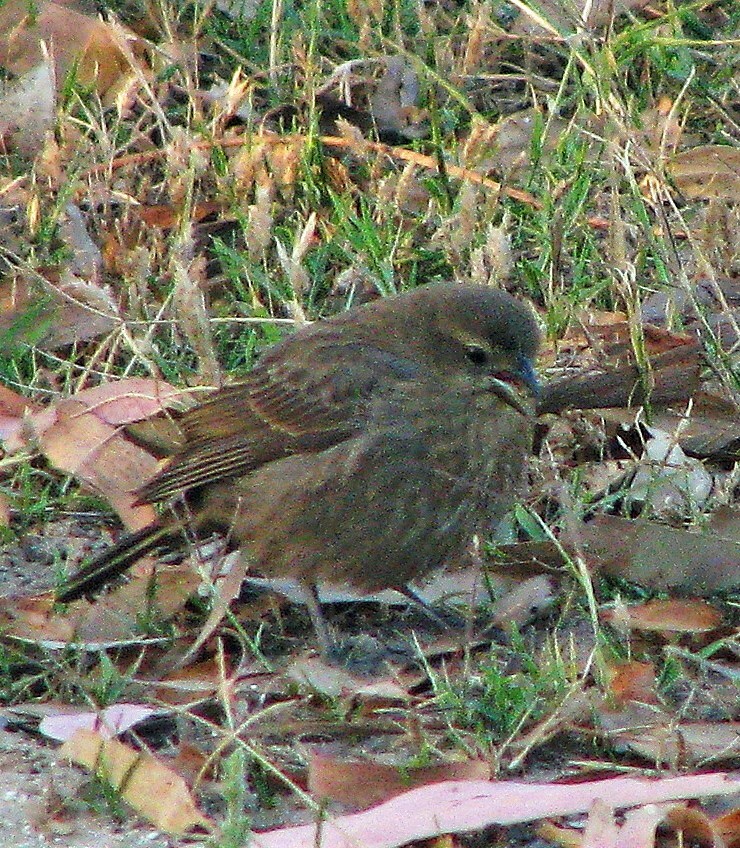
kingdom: Animalia
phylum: Chordata
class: Aves
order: Passeriformes
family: Icteridae
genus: Molothrus
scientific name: Molothrus bonariensis
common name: Shiny cowbird
